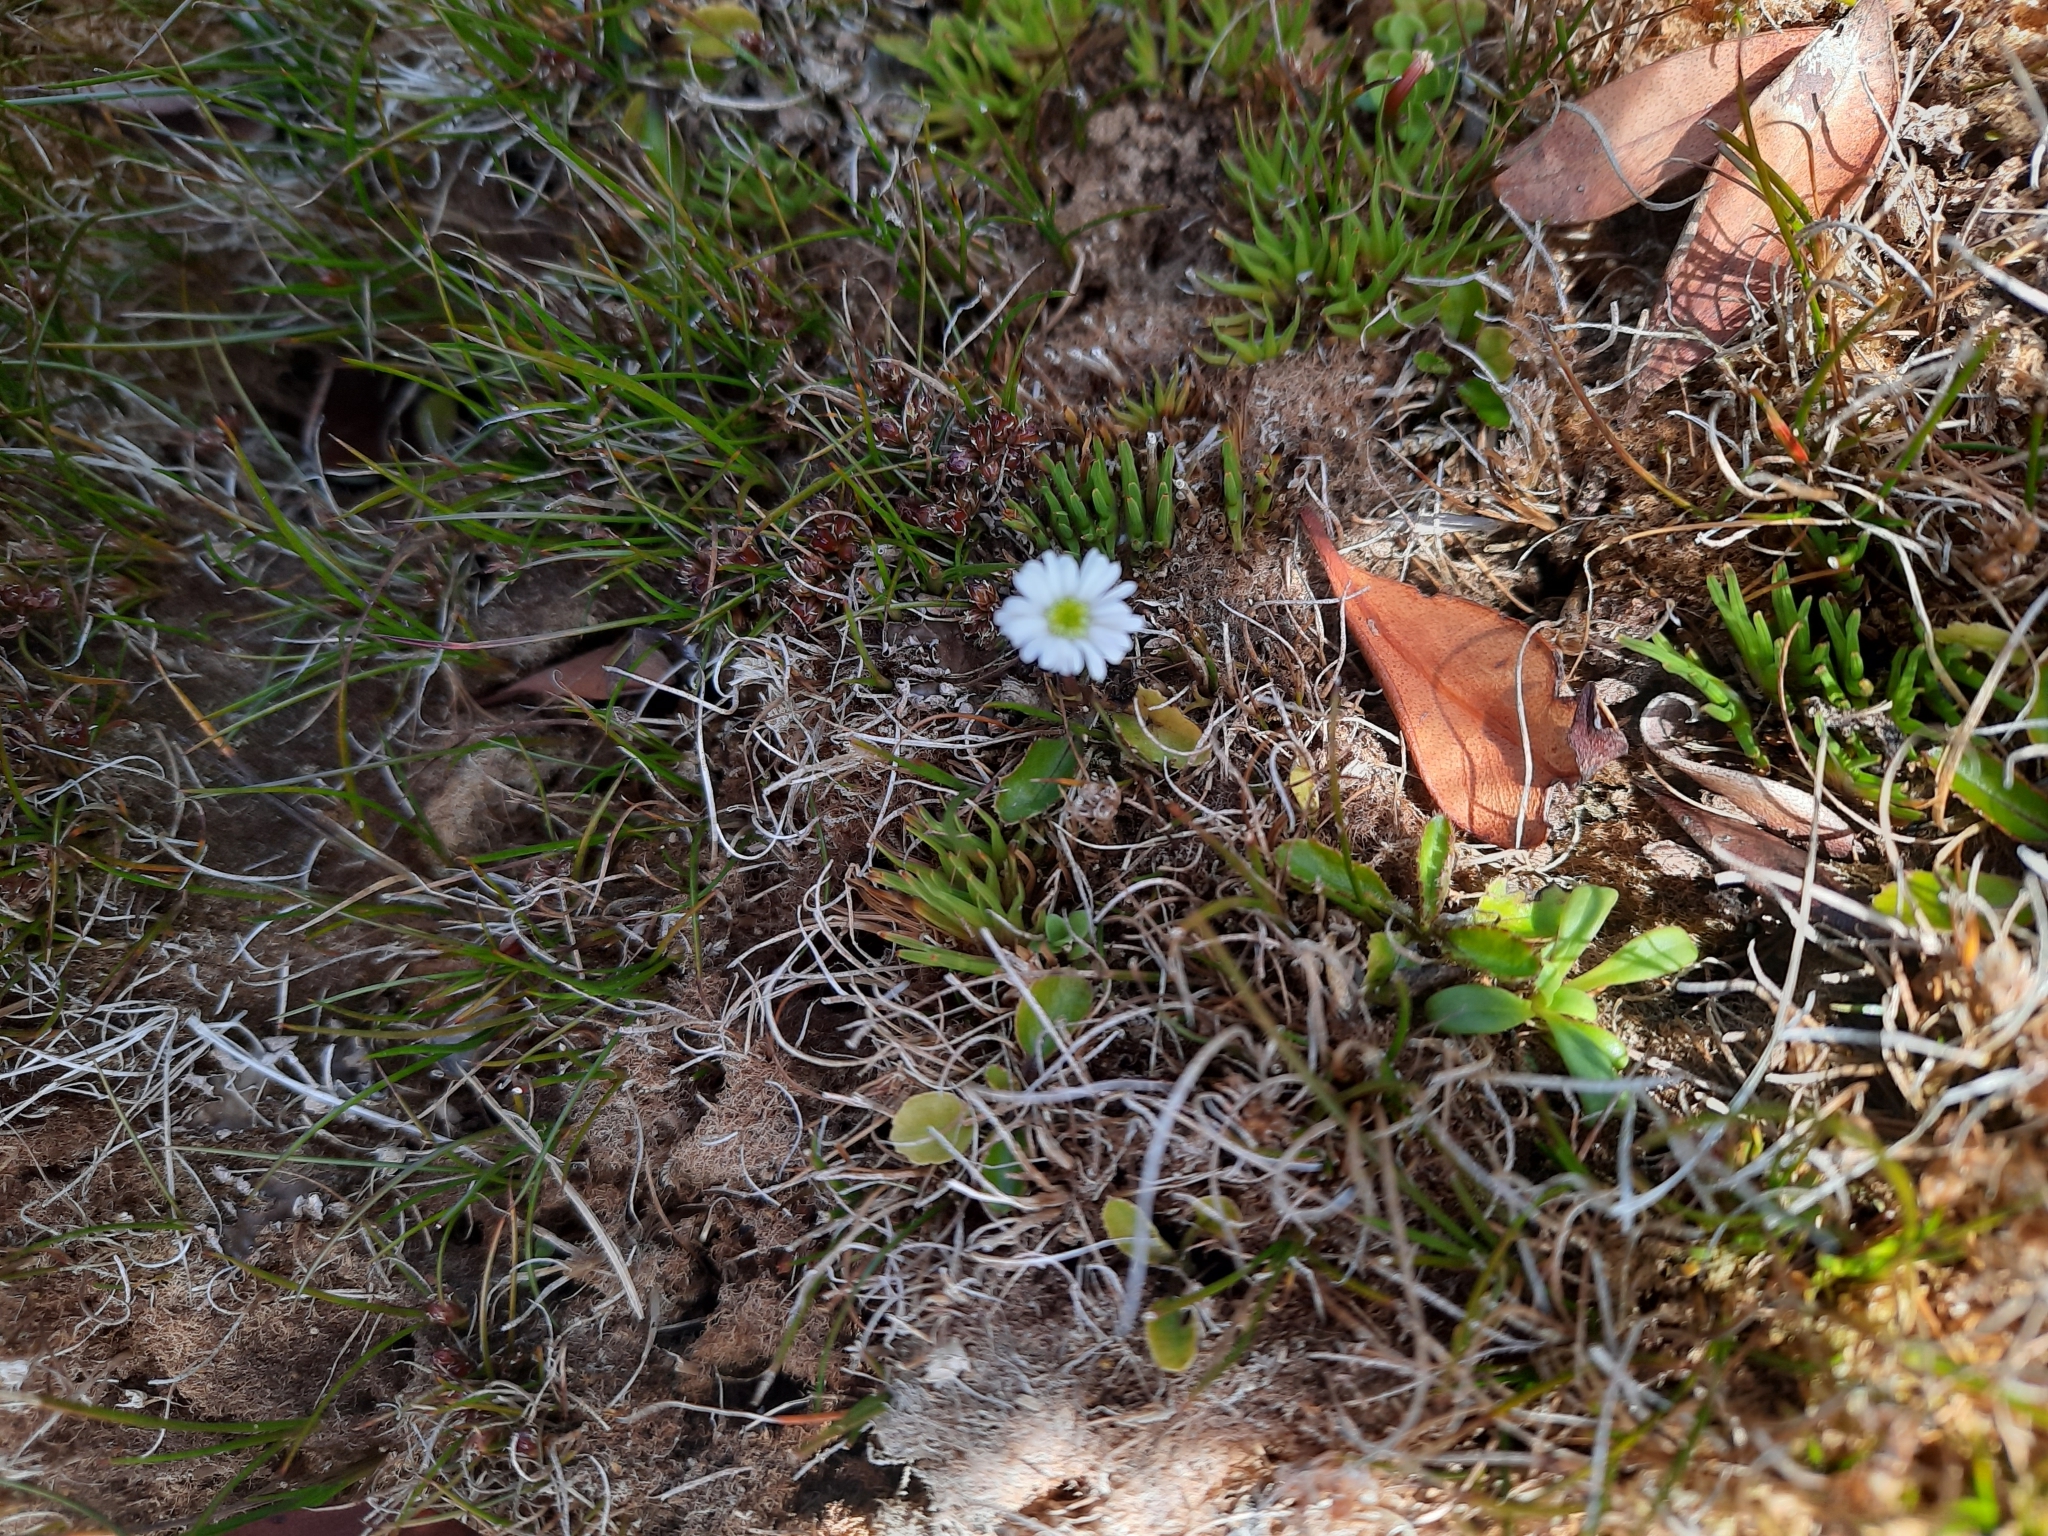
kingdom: Plantae
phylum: Tracheophyta
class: Magnoliopsida
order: Asterales
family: Asteraceae
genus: Lagenophora
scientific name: Lagenophora pumila
